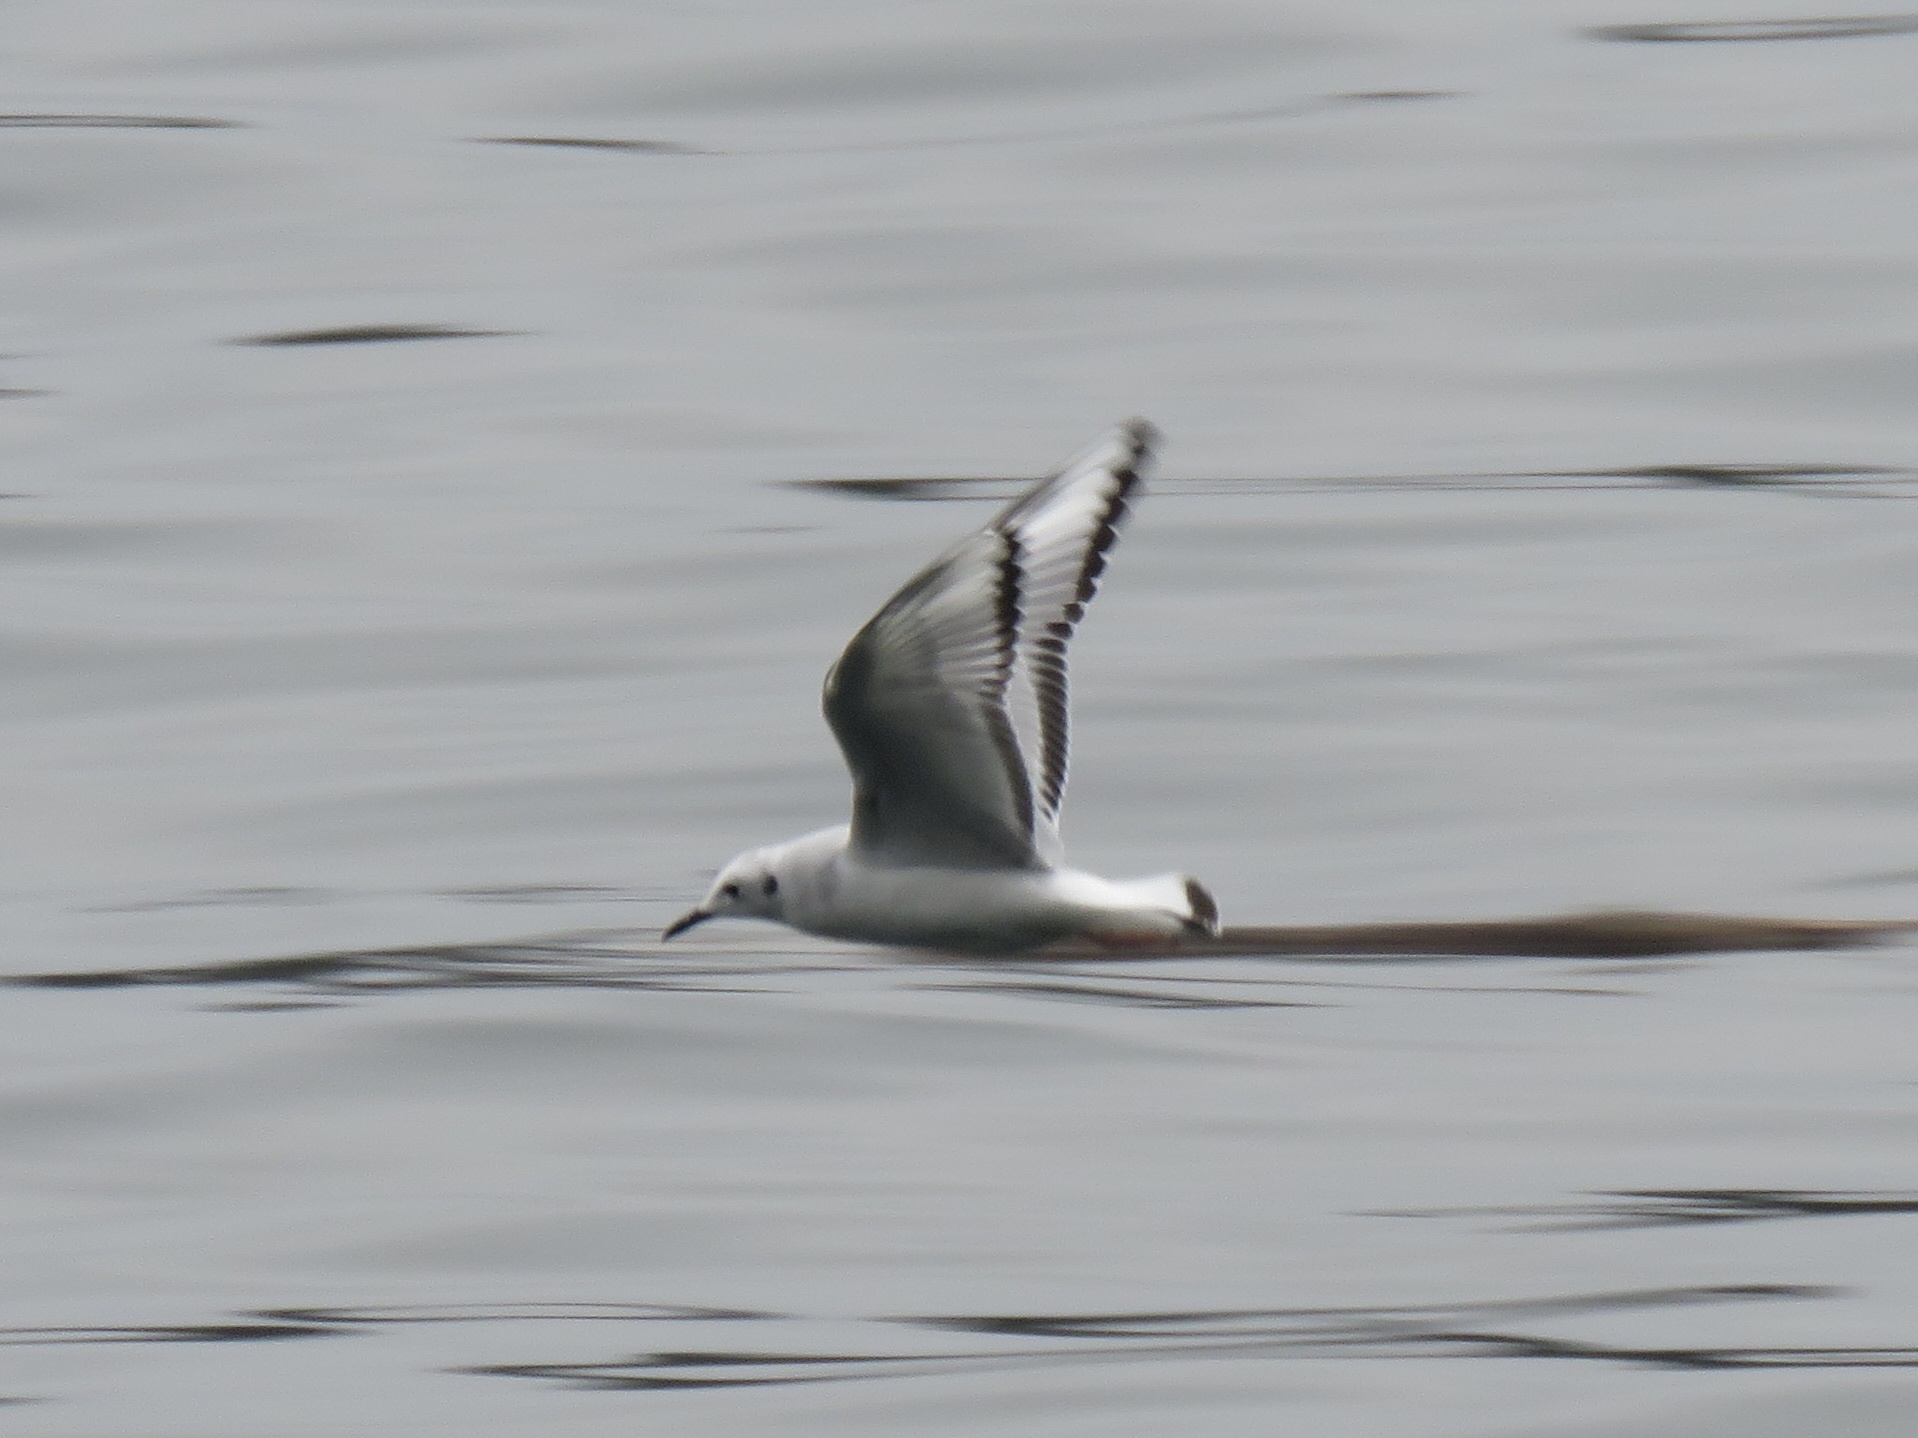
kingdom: Animalia
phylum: Chordata
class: Aves
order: Charadriiformes
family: Laridae
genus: Chroicocephalus
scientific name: Chroicocephalus philadelphia
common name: Bonaparte's gull
